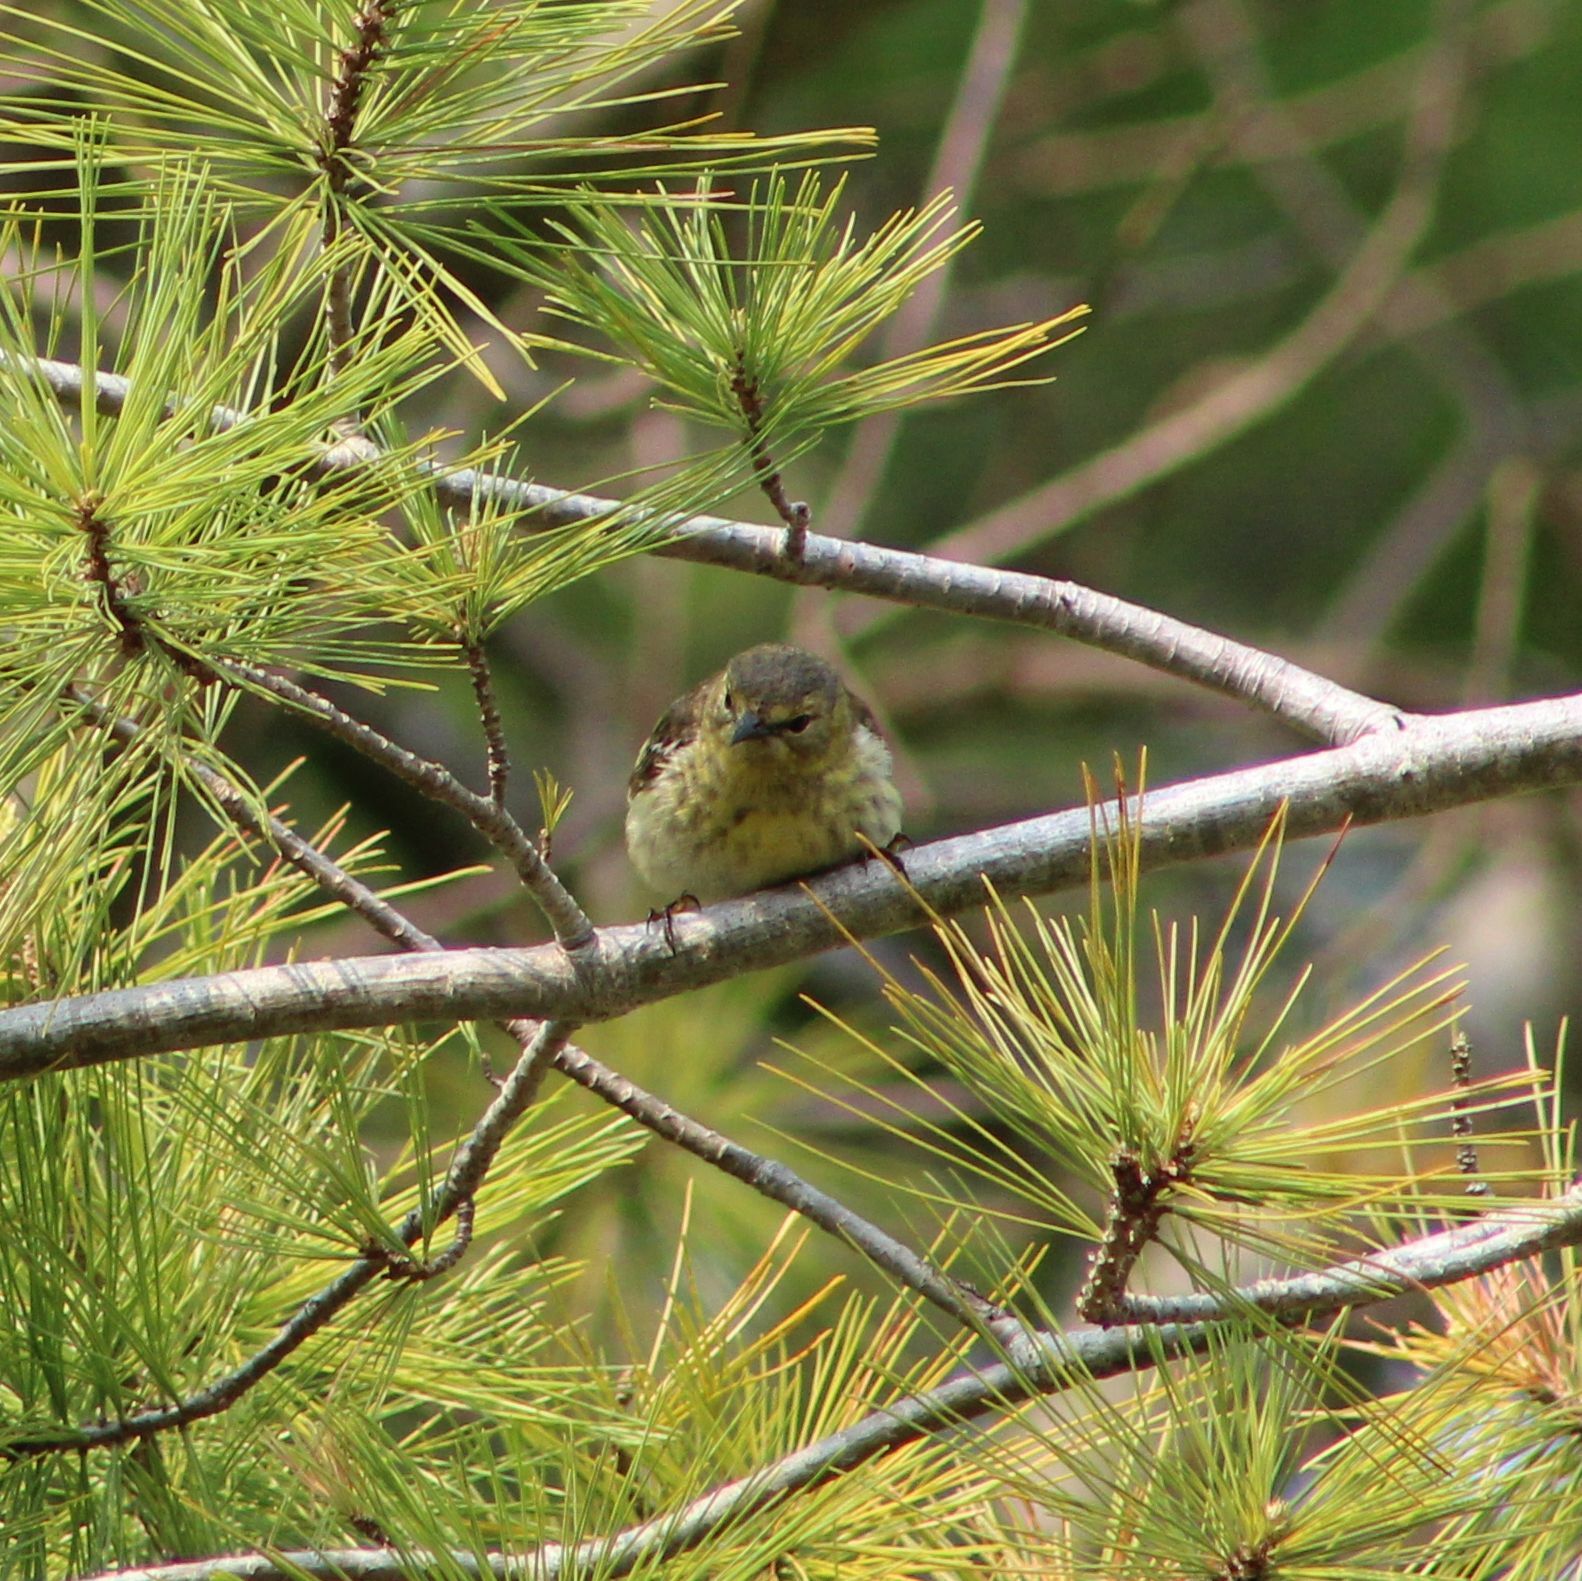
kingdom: Animalia
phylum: Chordata
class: Aves
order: Passeriformes
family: Parulidae
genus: Setophaga
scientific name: Setophaga tigrina
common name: Cape may warbler
